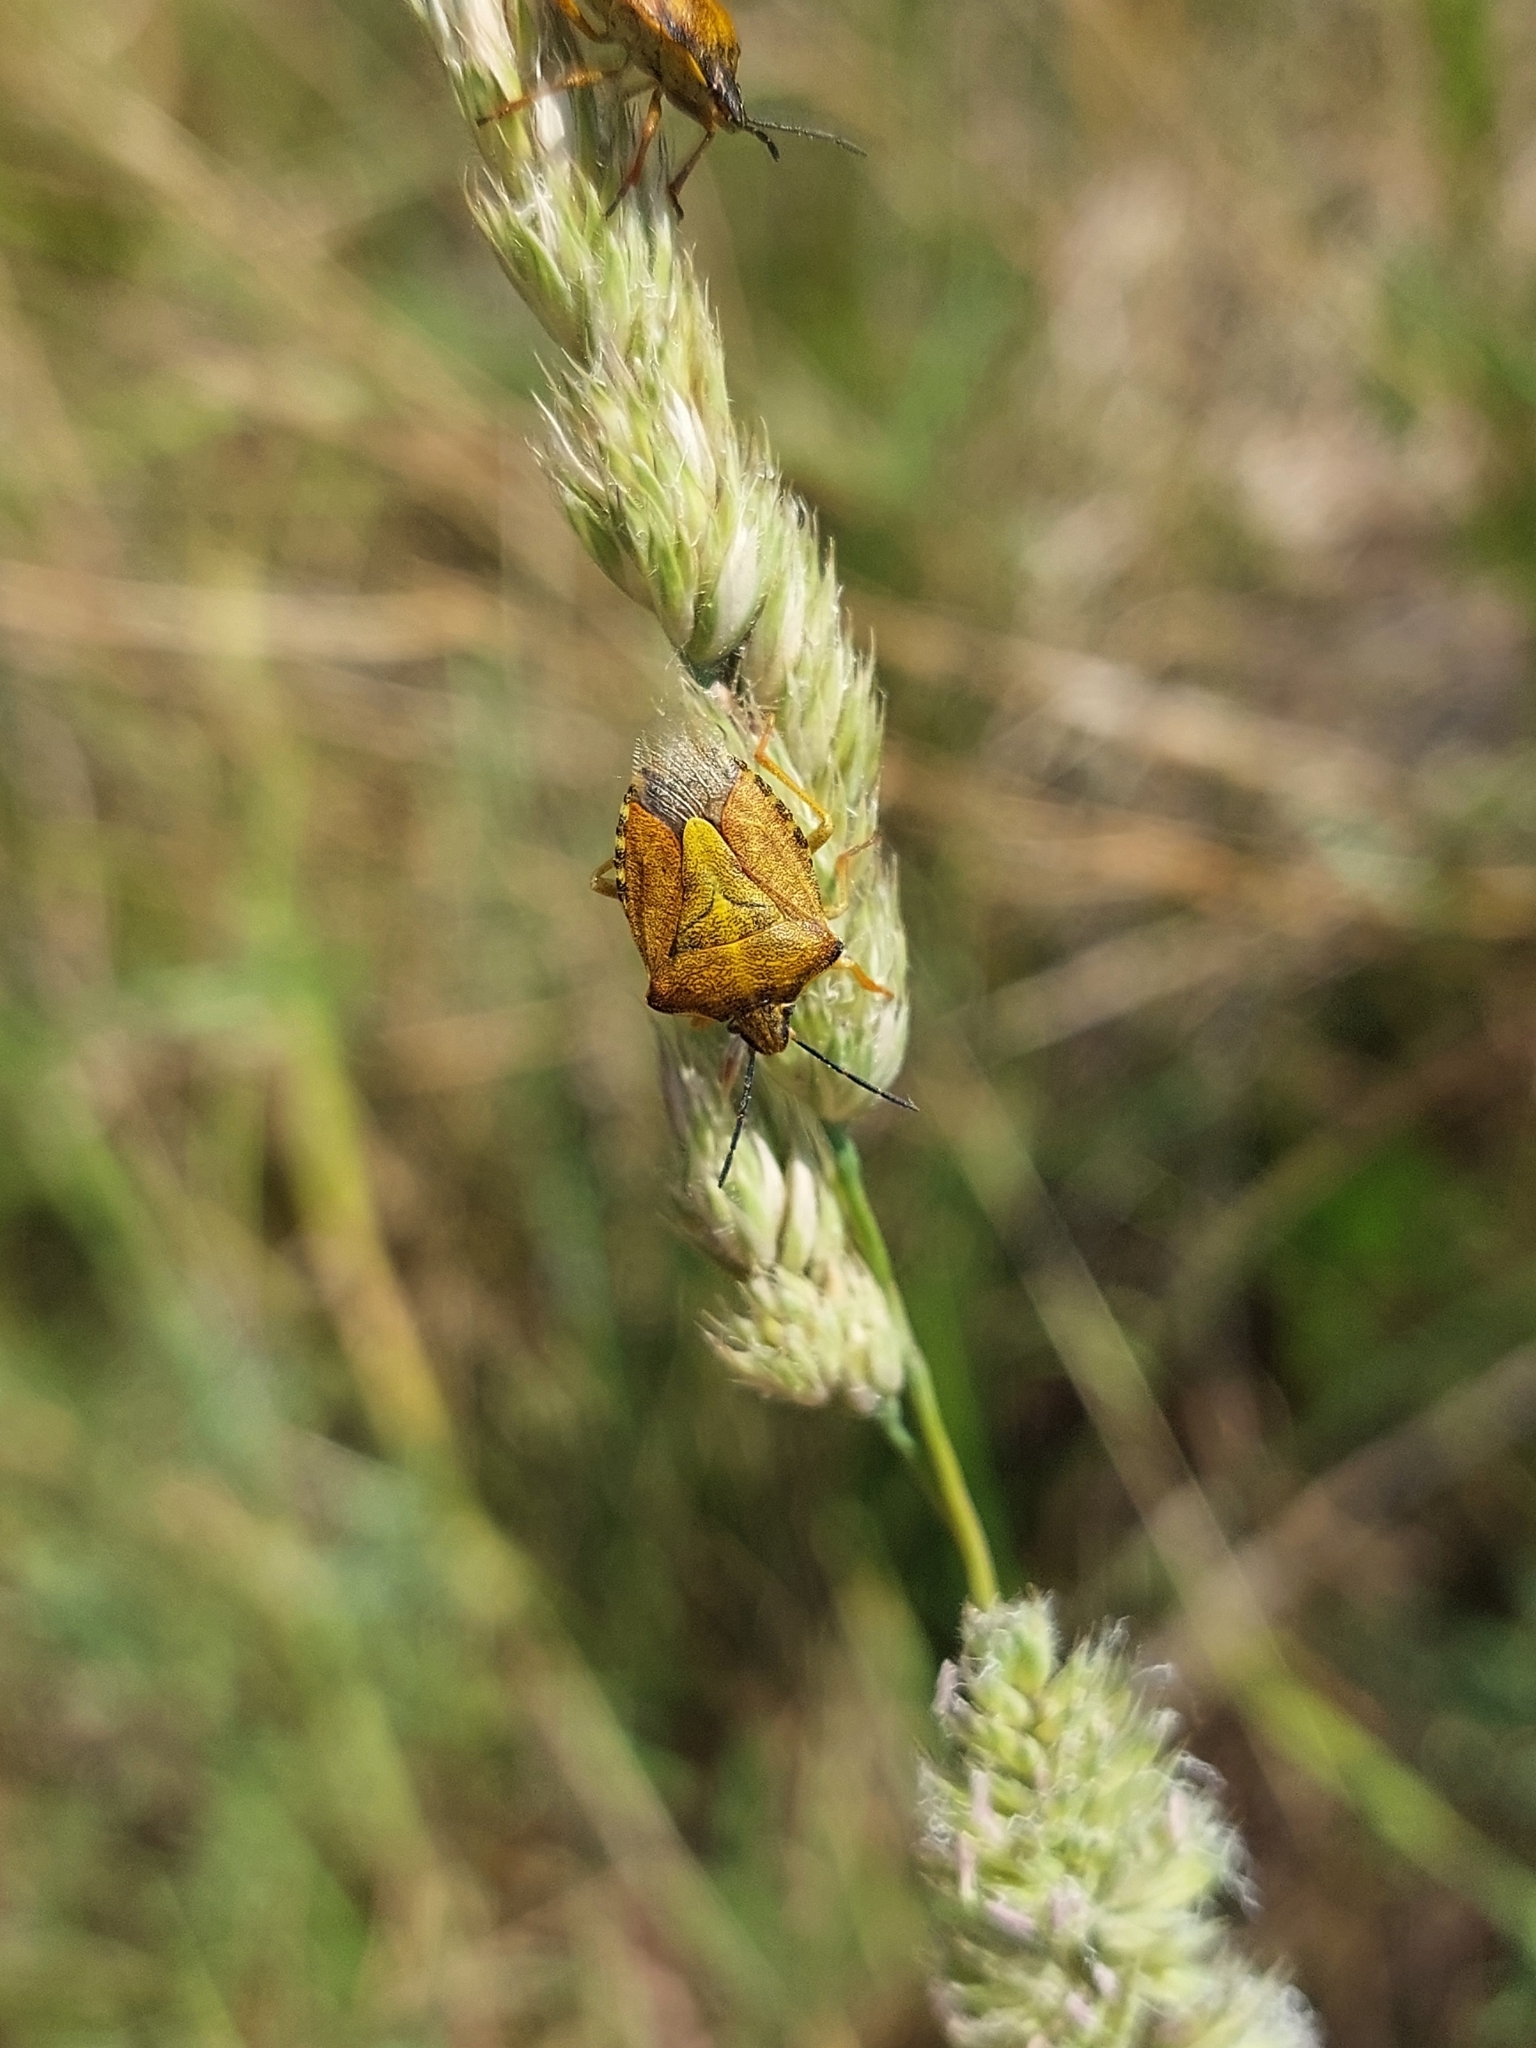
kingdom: Animalia
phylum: Arthropoda
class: Insecta
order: Hemiptera
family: Pentatomidae
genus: Carpocoris
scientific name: Carpocoris purpureipennis
